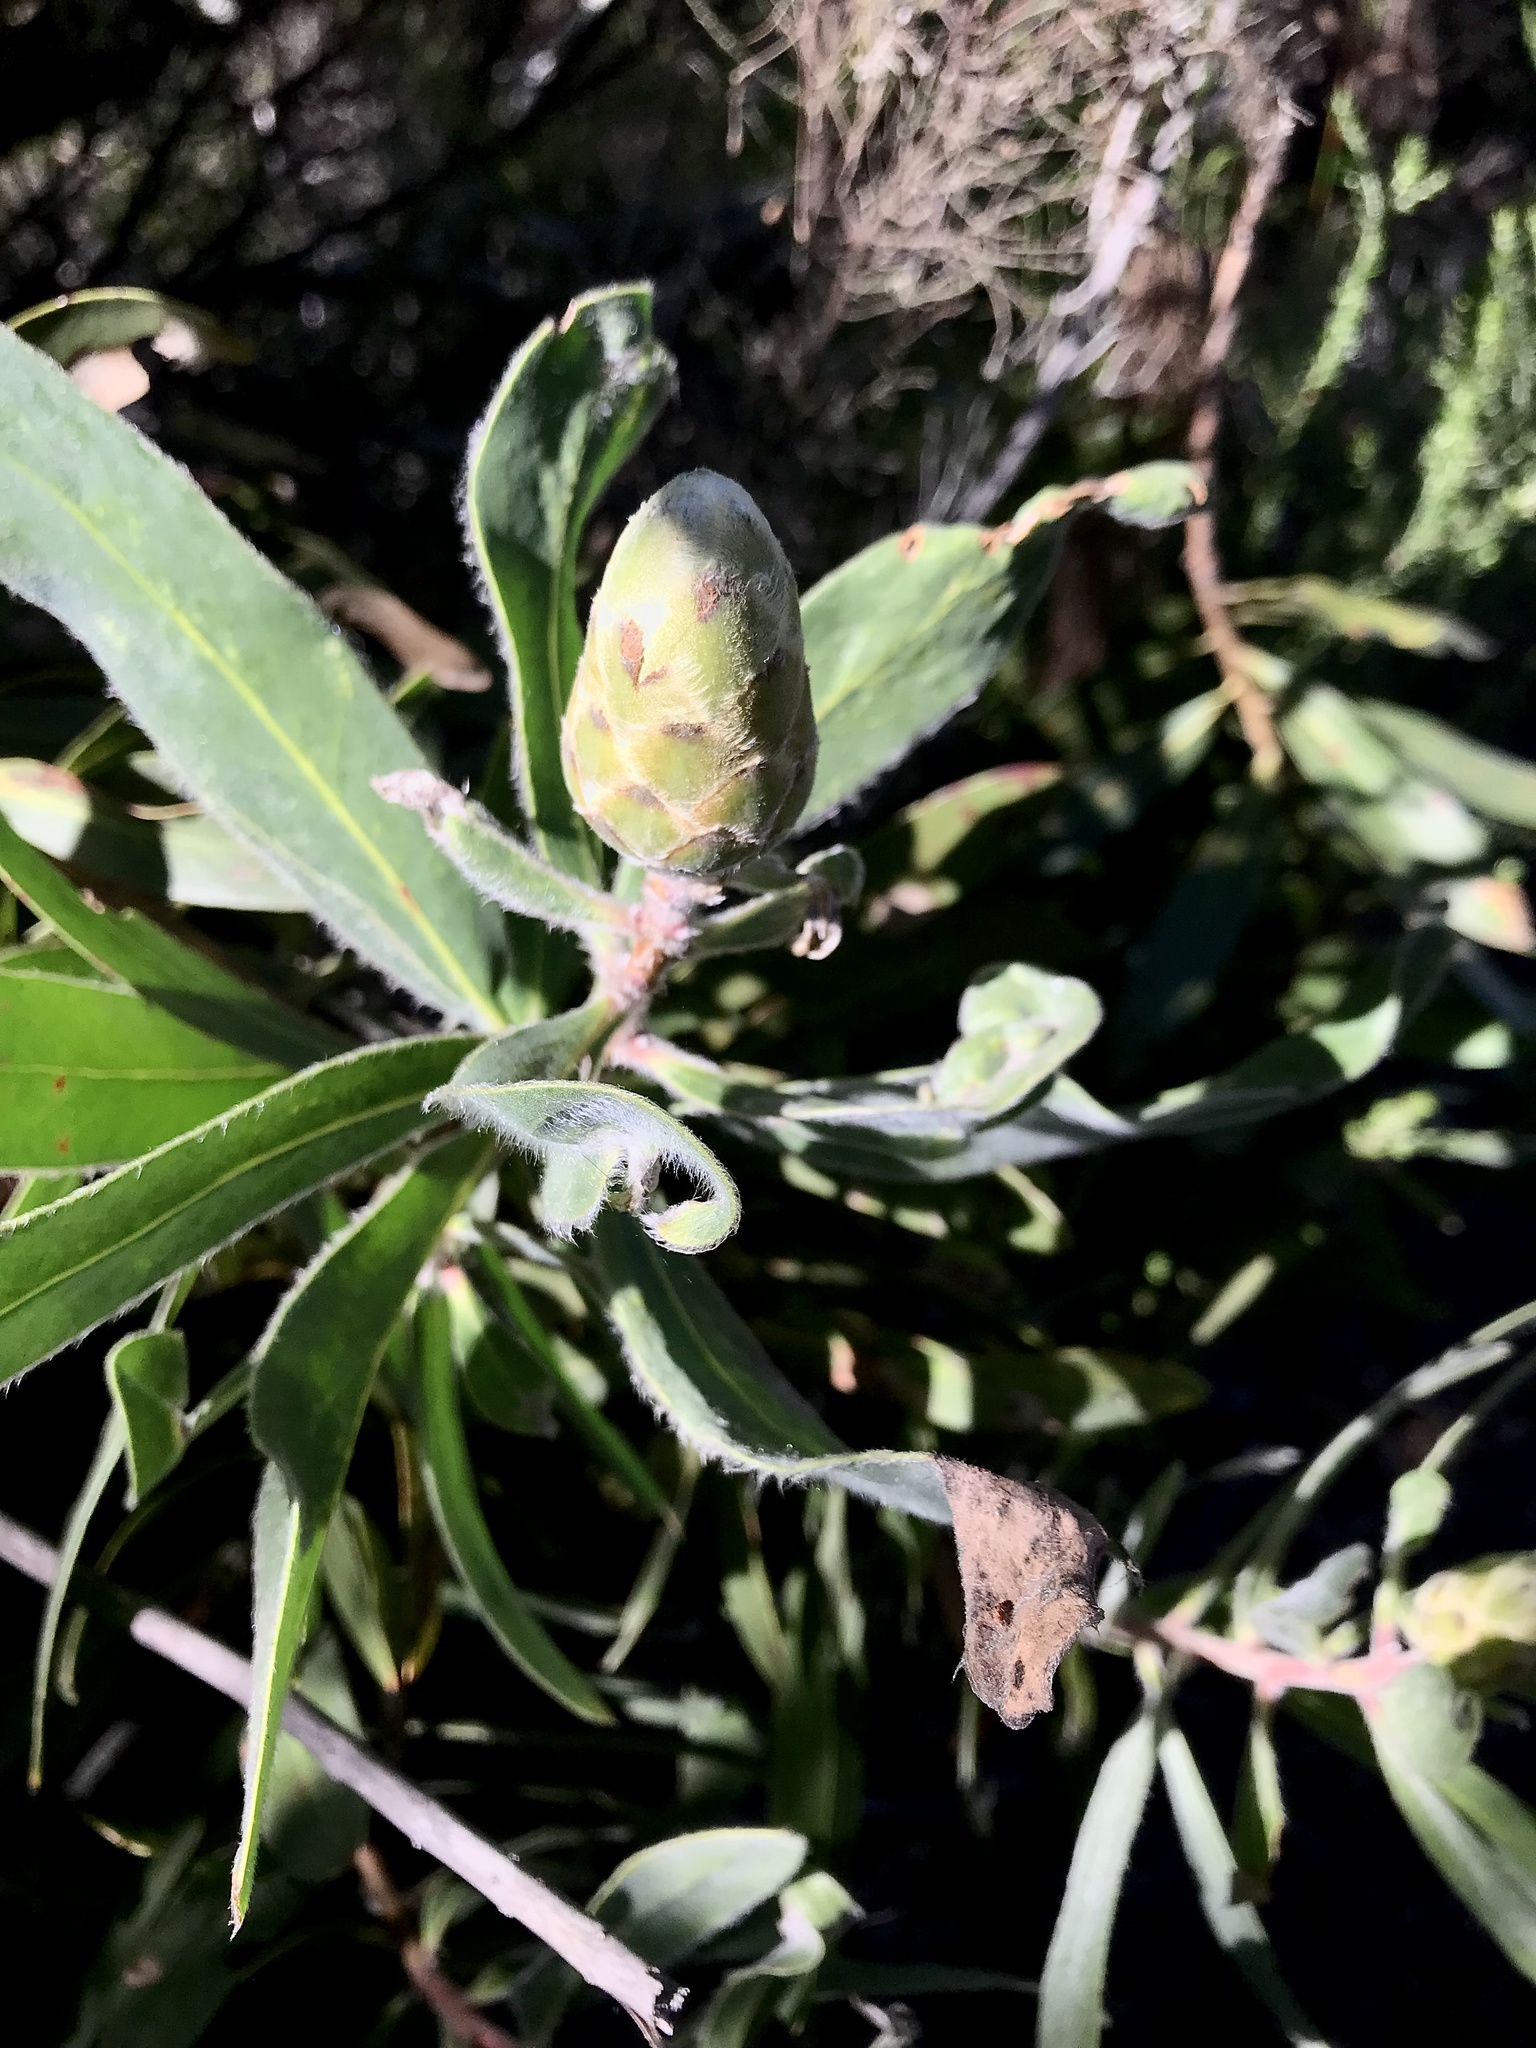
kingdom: Plantae
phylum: Tracheophyta
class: Magnoliopsida
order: Proteales
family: Proteaceae
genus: Protea
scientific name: Protea mundii
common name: Forest sugarbush
